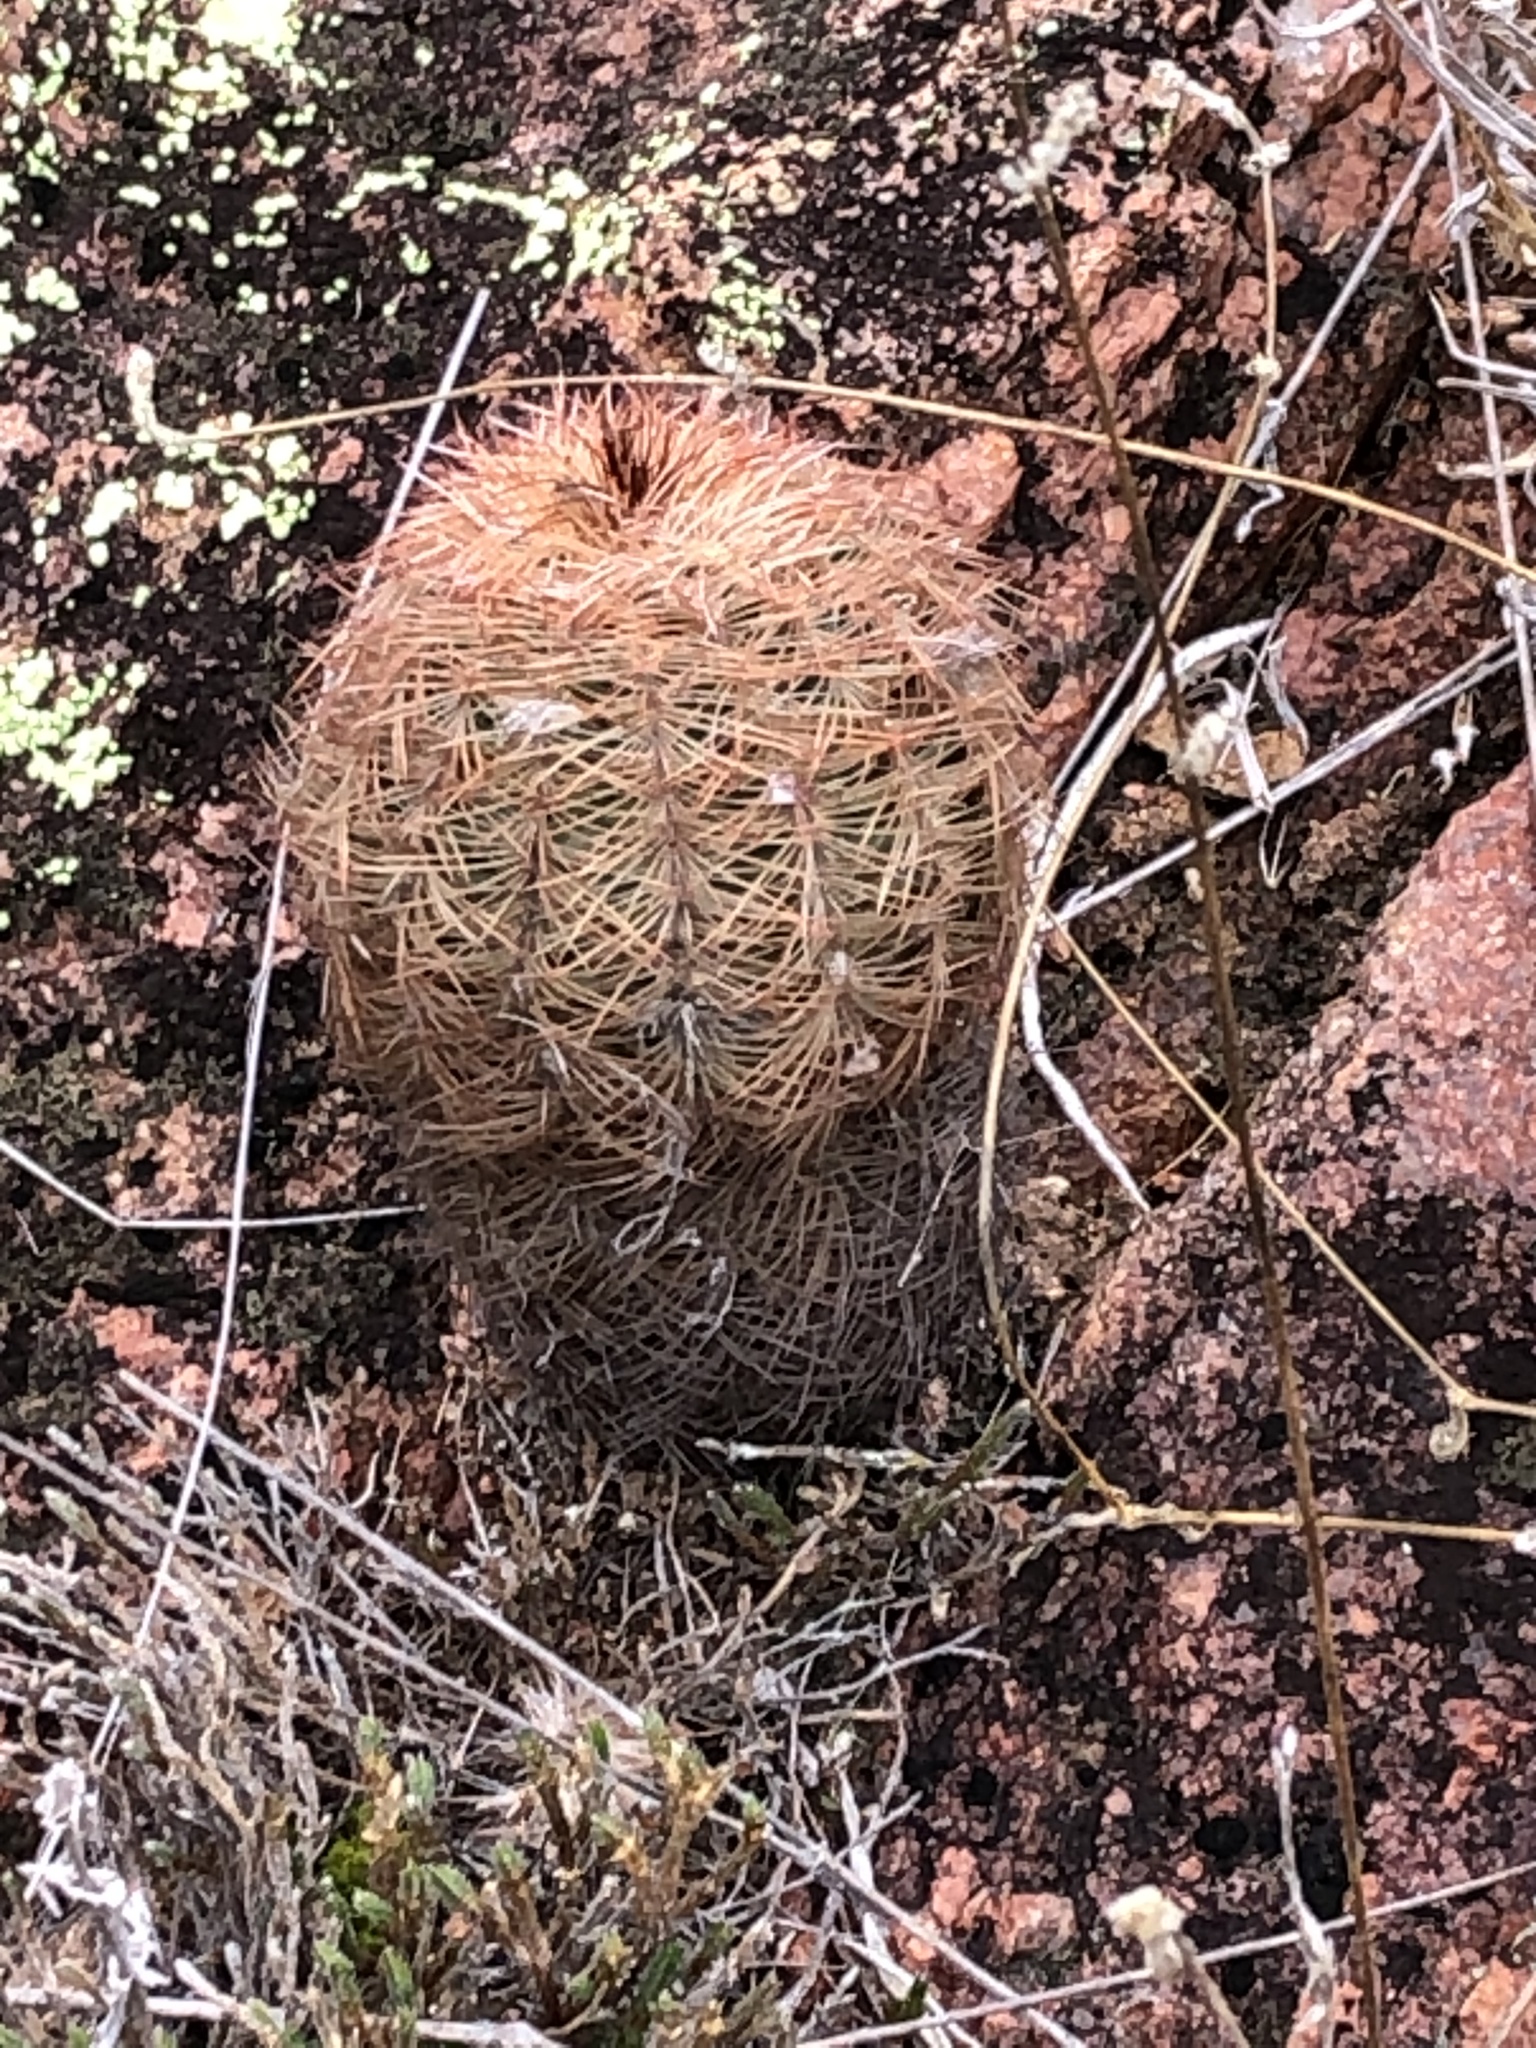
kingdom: Plantae
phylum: Tracheophyta
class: Magnoliopsida
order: Caryophyllales
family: Cactaceae
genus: Echinocereus
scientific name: Echinocereus reichenbachii
